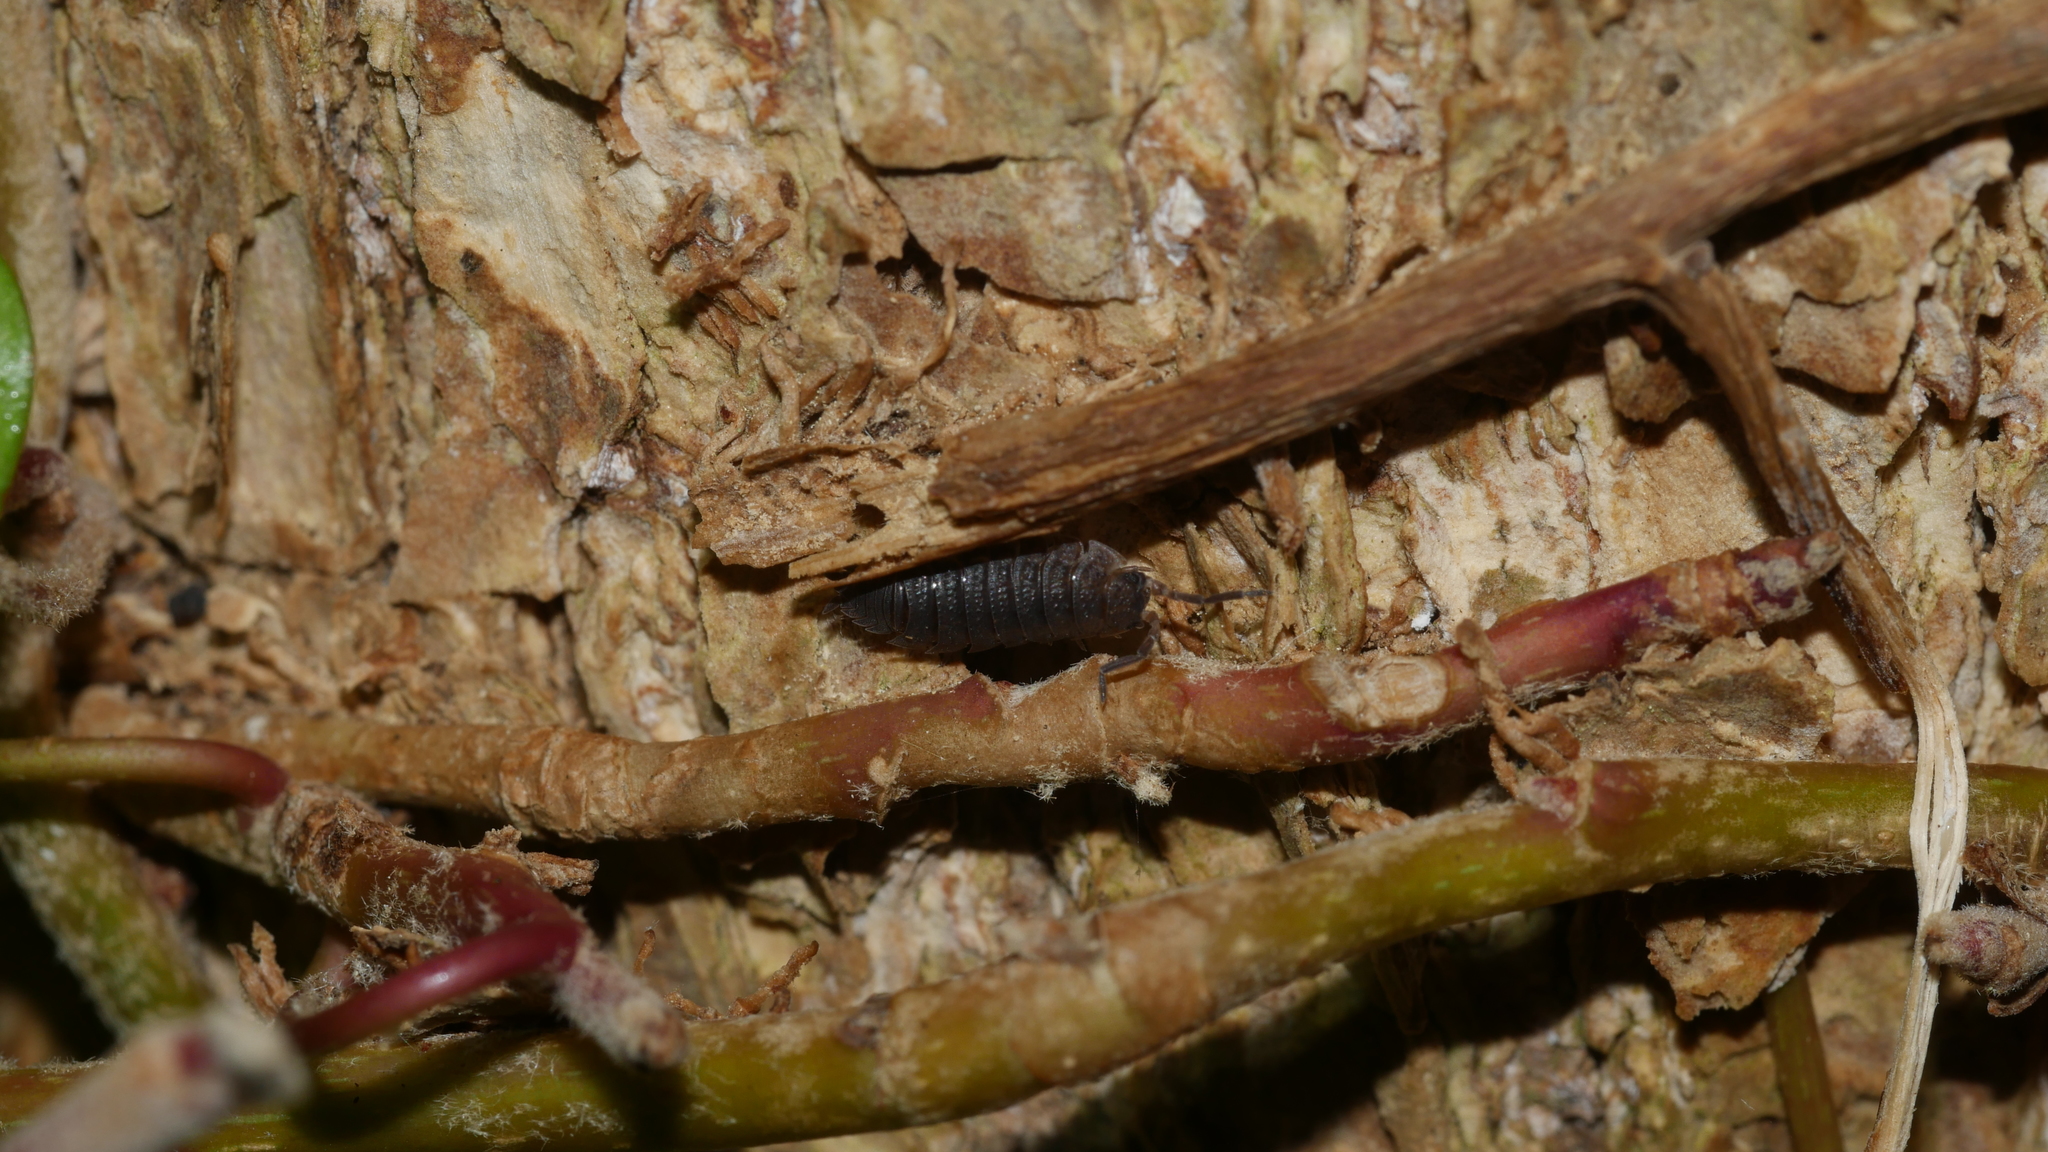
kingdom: Animalia
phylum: Arthropoda
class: Malacostraca
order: Isopoda
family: Porcellionidae
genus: Porcellio
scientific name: Porcellio scaber
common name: Common rough woodlouse
